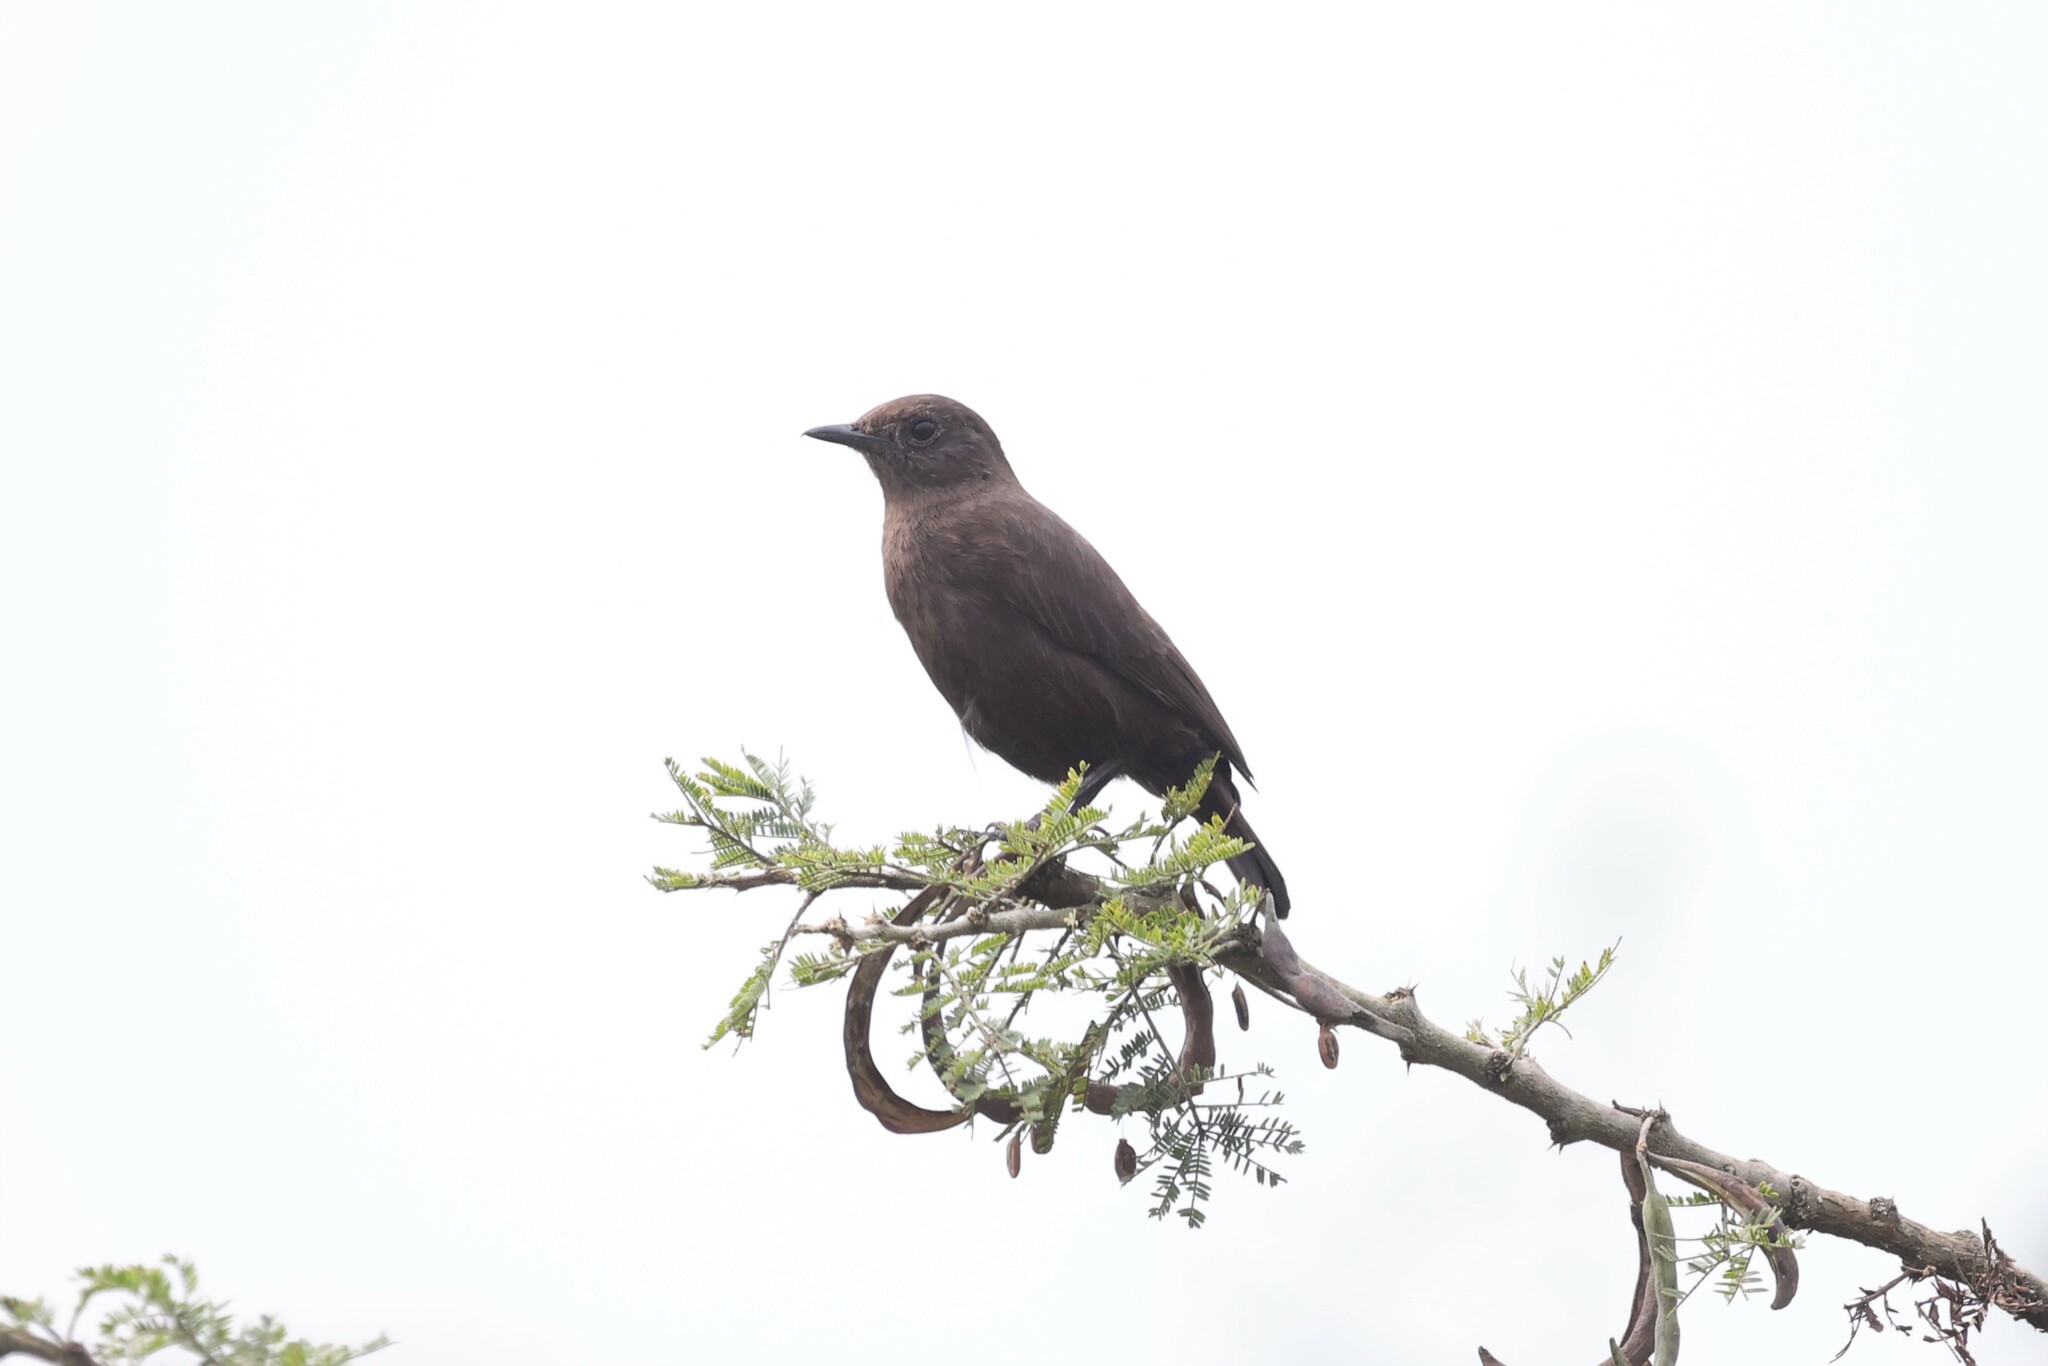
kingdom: Animalia
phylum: Chordata
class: Aves
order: Passeriformes
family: Muscicapidae
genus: Myrmecocichla
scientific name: Myrmecocichla nigra
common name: Sooty chat
